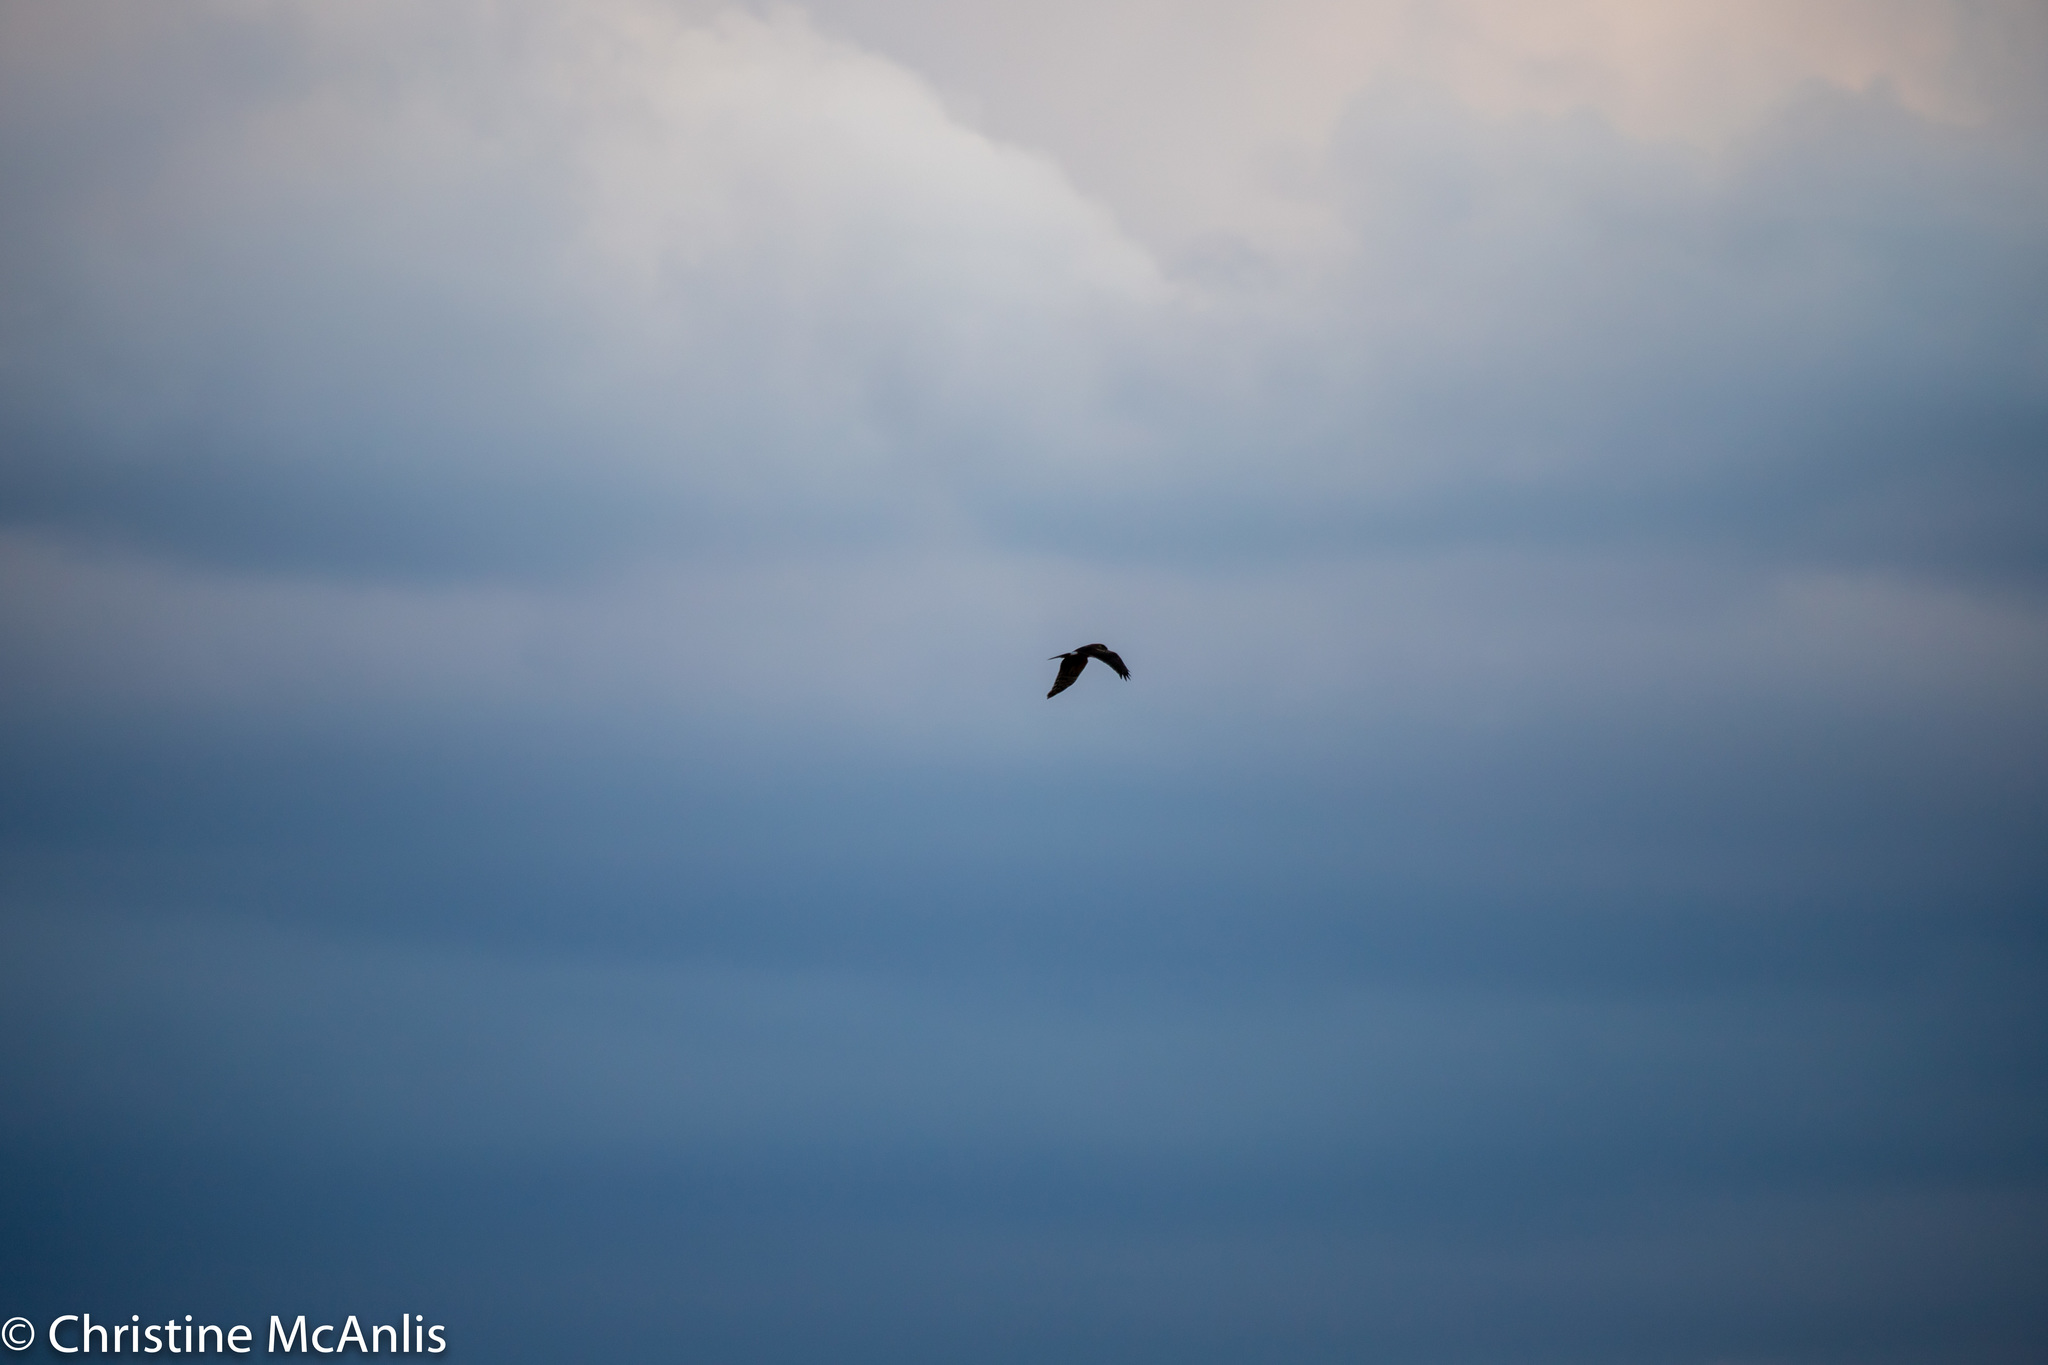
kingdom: Animalia
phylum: Chordata
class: Aves
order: Accipitriformes
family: Accipitridae
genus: Circus
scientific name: Circus cyaneus
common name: Hen harrier
